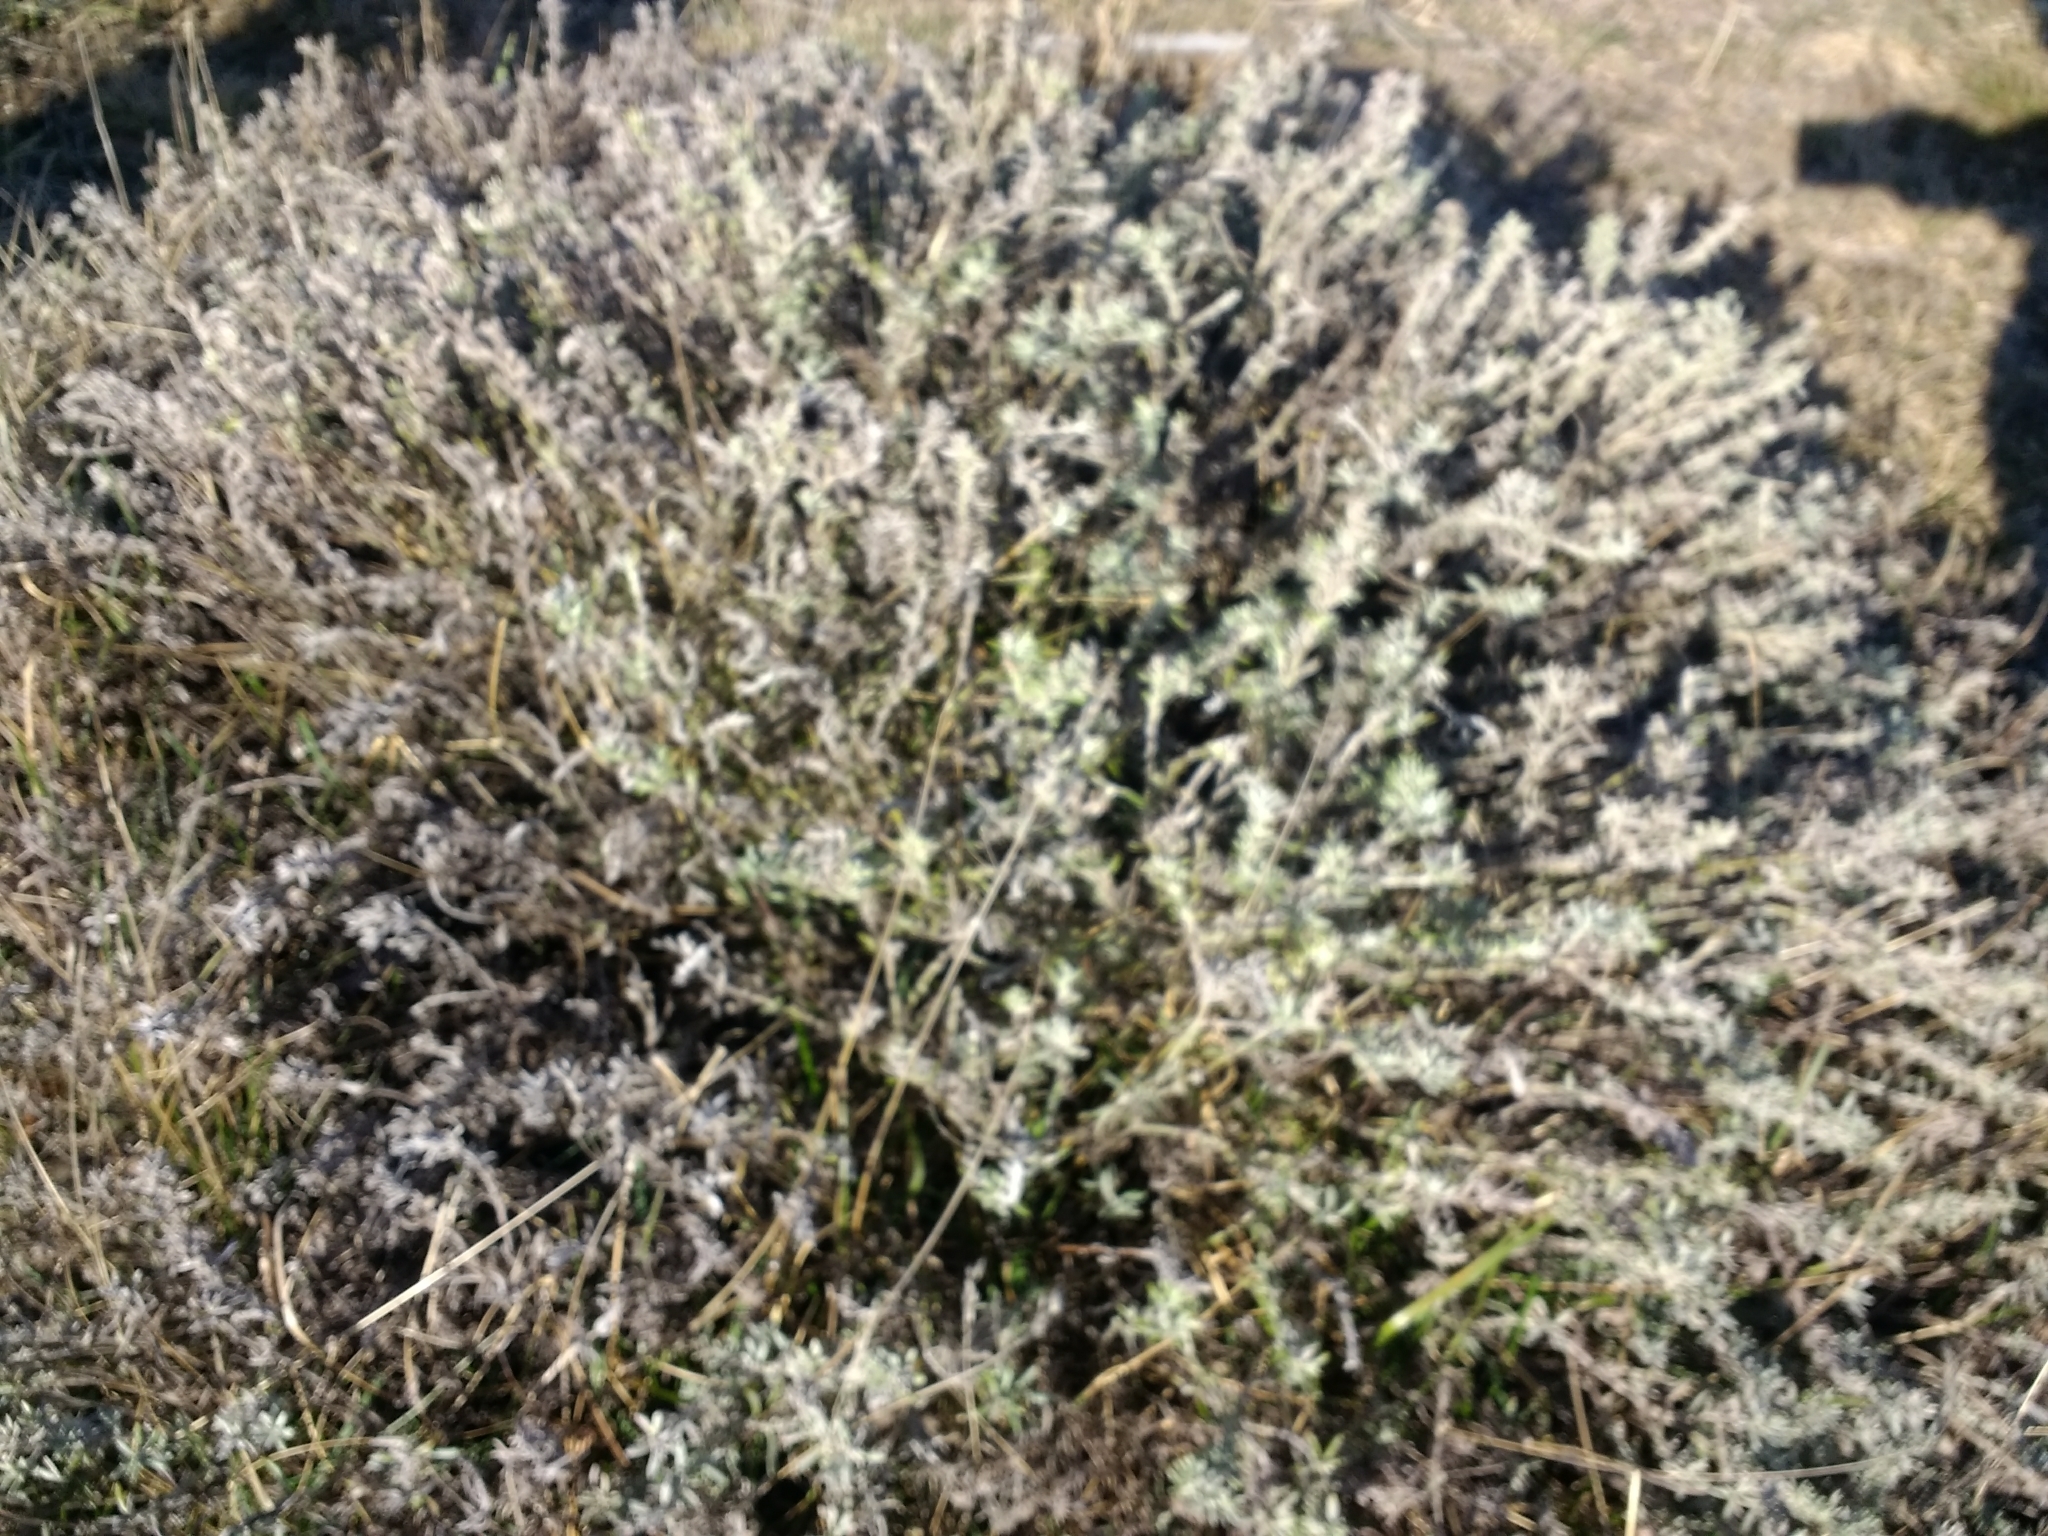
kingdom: Plantae
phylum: Tracheophyta
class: Magnoliopsida
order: Asterales
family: Asteraceae
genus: Senecio
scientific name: Senecio patagonicus
